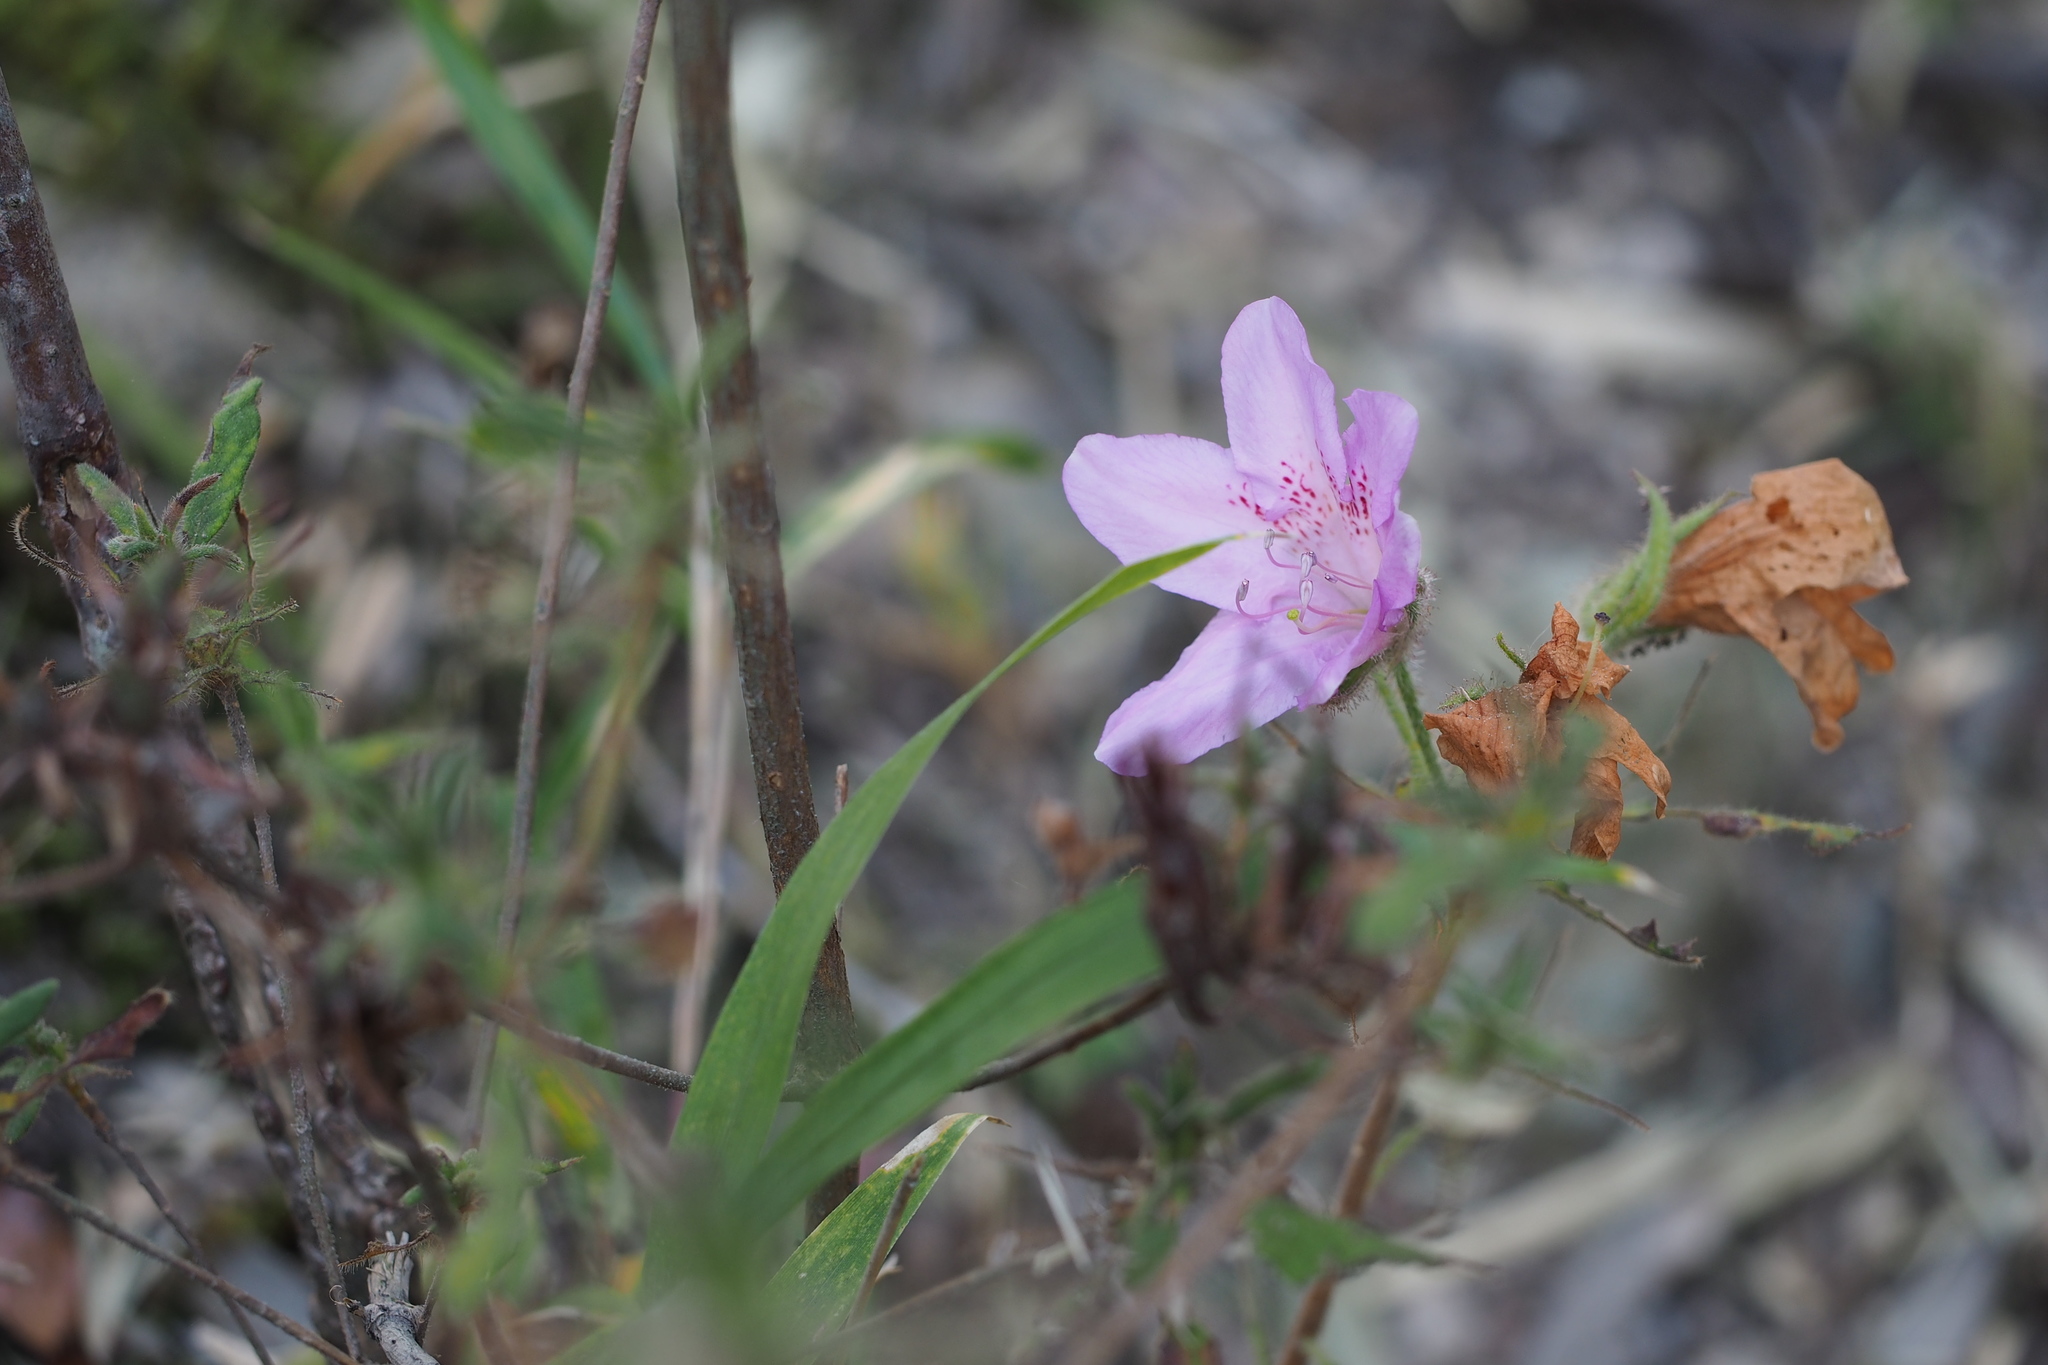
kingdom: Plantae
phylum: Tracheophyta
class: Magnoliopsida
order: Ericales
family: Ericaceae
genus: Rhododendron
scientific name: Rhododendron stenopetalum
